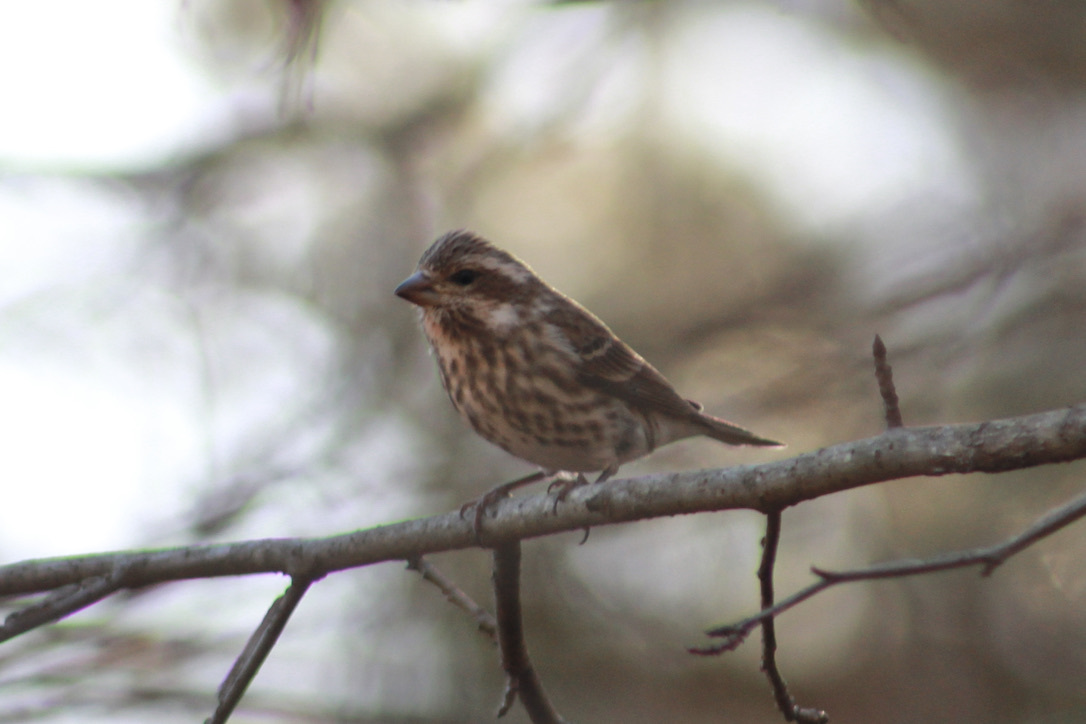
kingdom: Animalia
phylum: Chordata
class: Aves
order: Passeriformes
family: Fringillidae
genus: Haemorhous
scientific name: Haemorhous purpureus
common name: Purple finch
